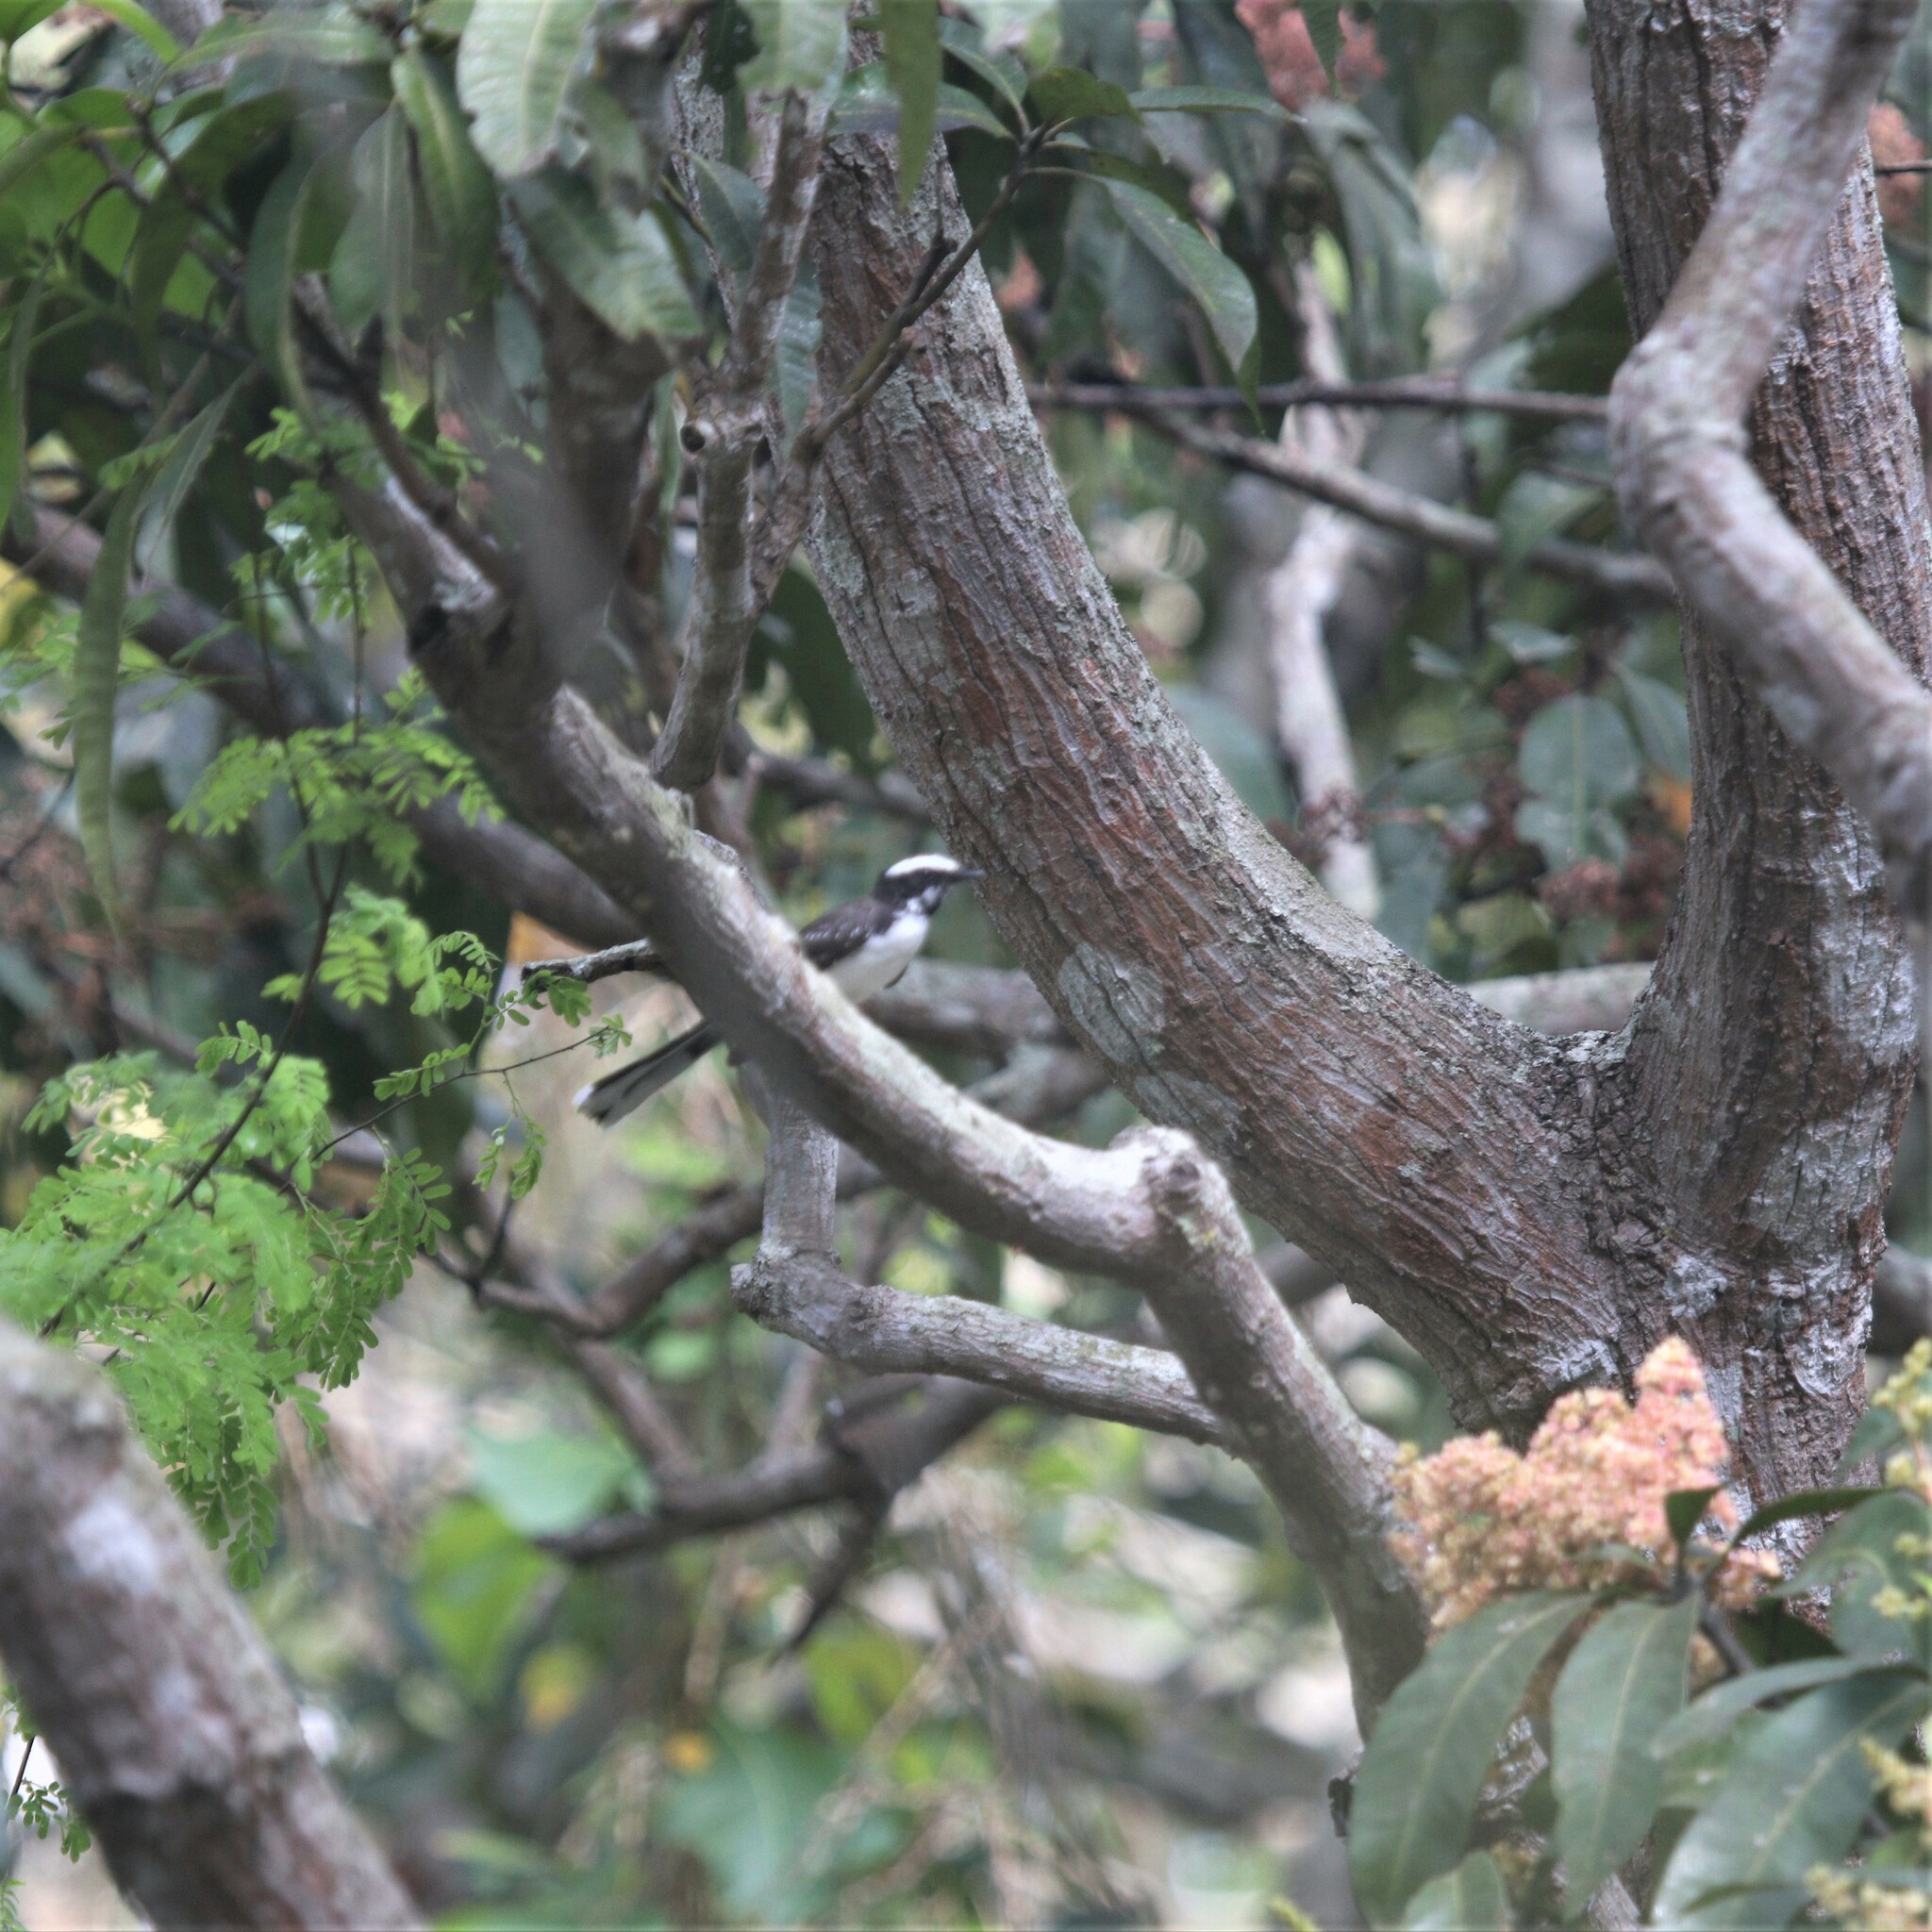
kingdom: Animalia
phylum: Chordata
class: Aves
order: Passeriformes
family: Rhipiduridae
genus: Rhipidura
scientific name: Rhipidura aureola
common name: White-browed fantail
